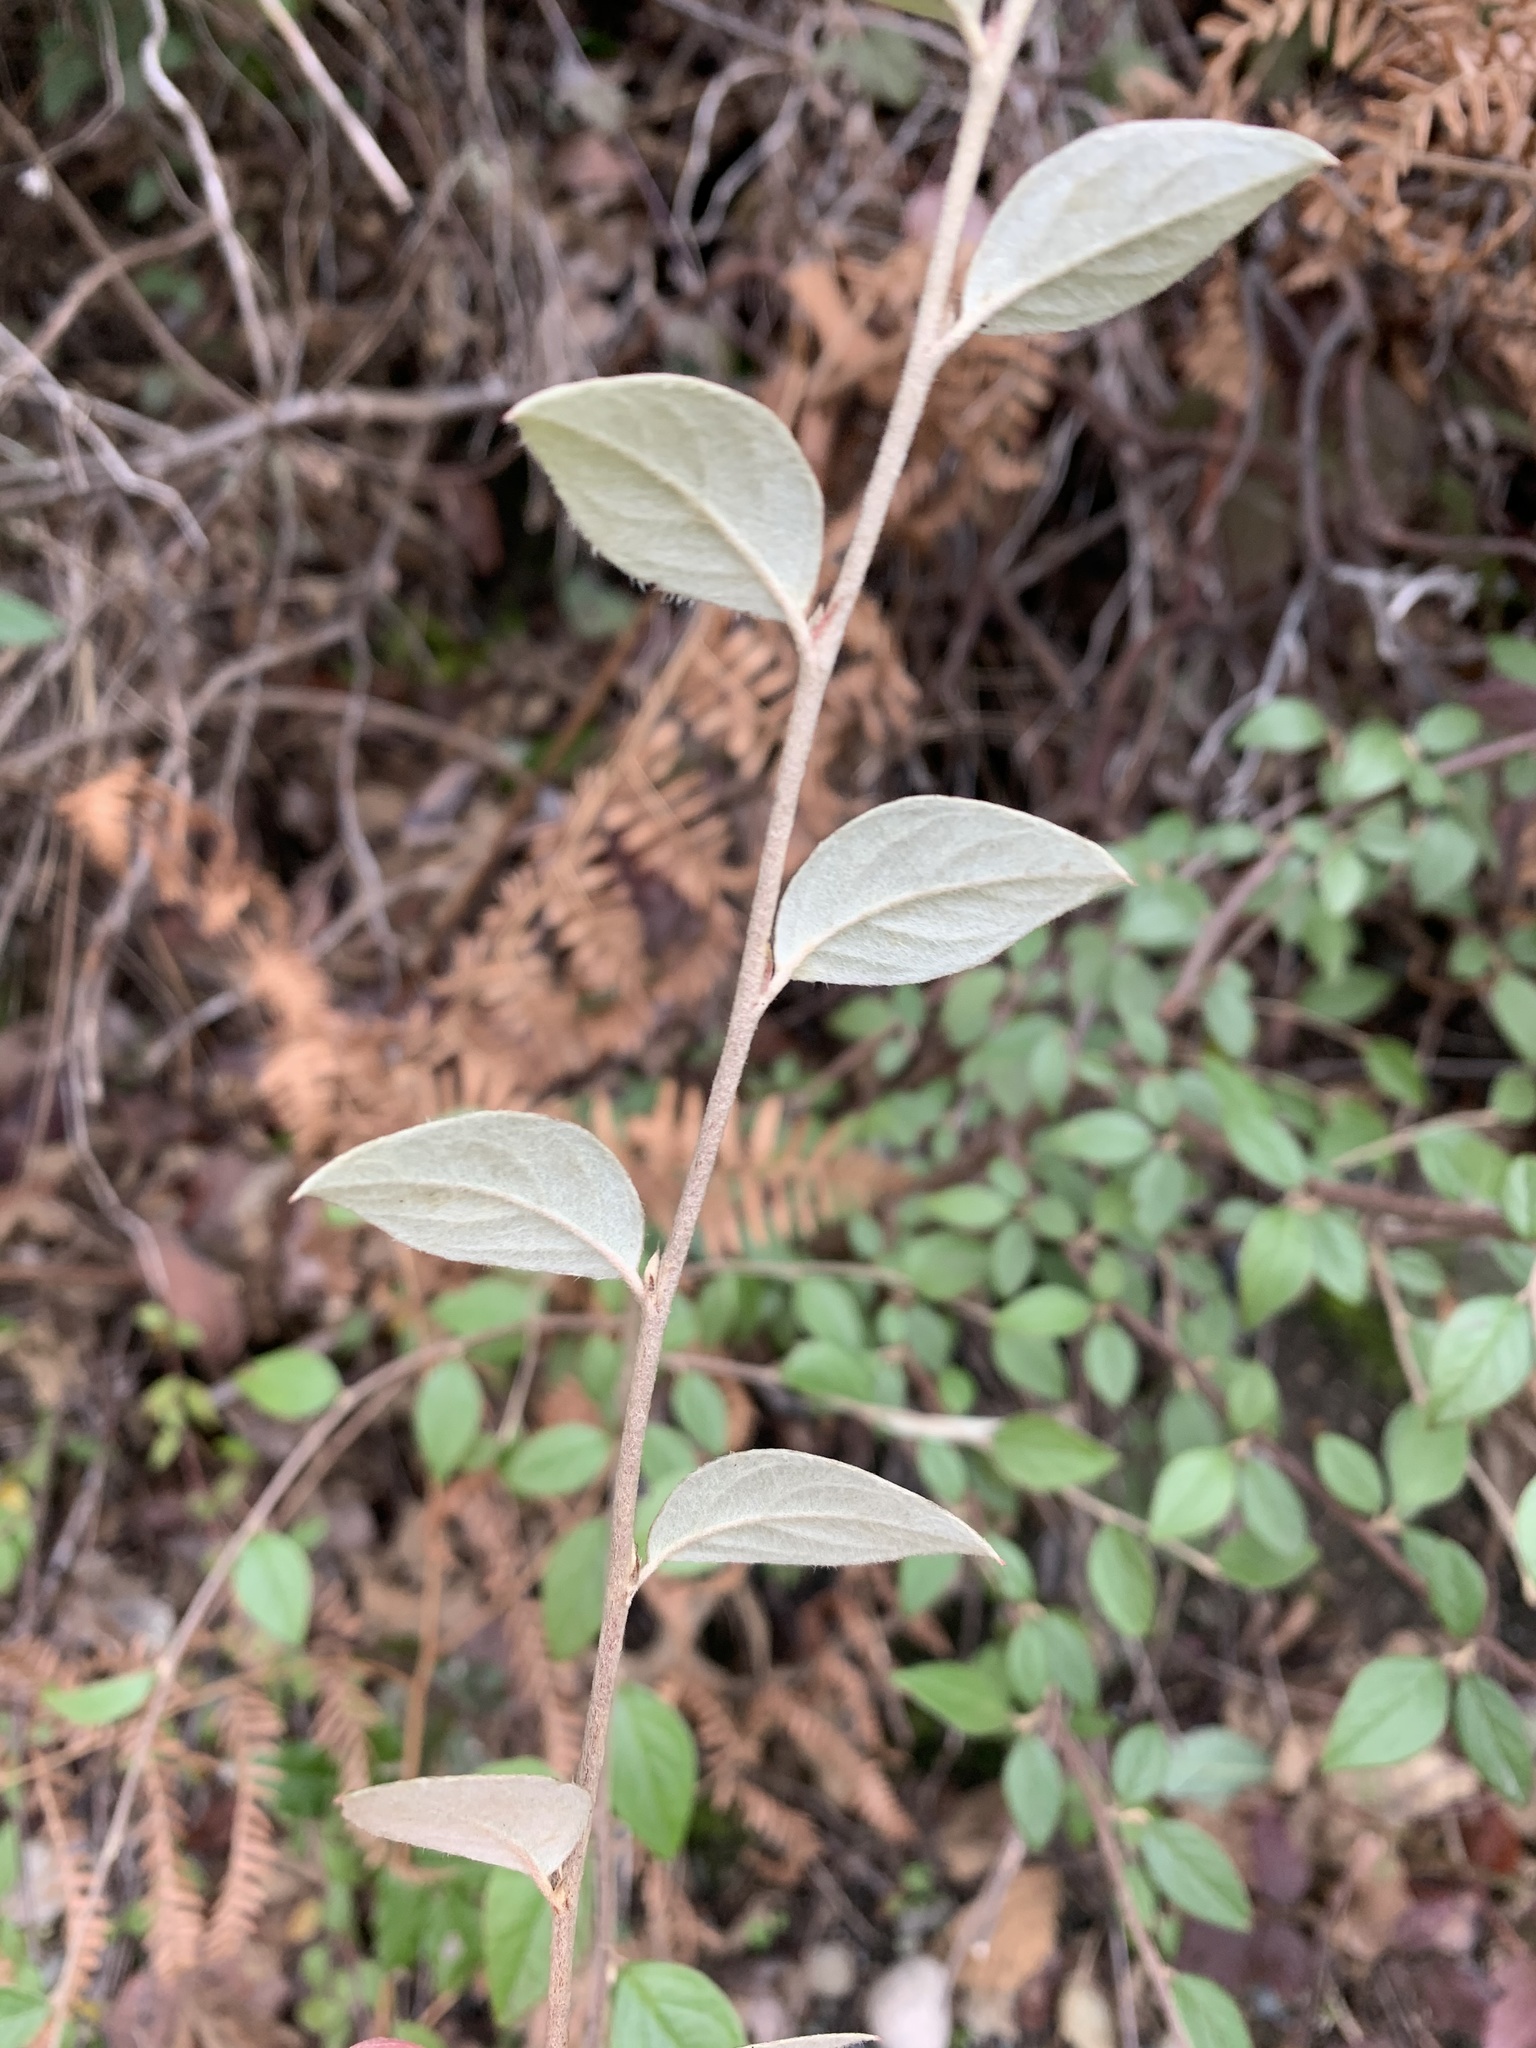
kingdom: Plantae
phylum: Tracheophyta
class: Magnoliopsida
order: Rosales
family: Rosaceae
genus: Cotoneaster
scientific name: Cotoneaster franchetii
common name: Franchet's cotoneaster
